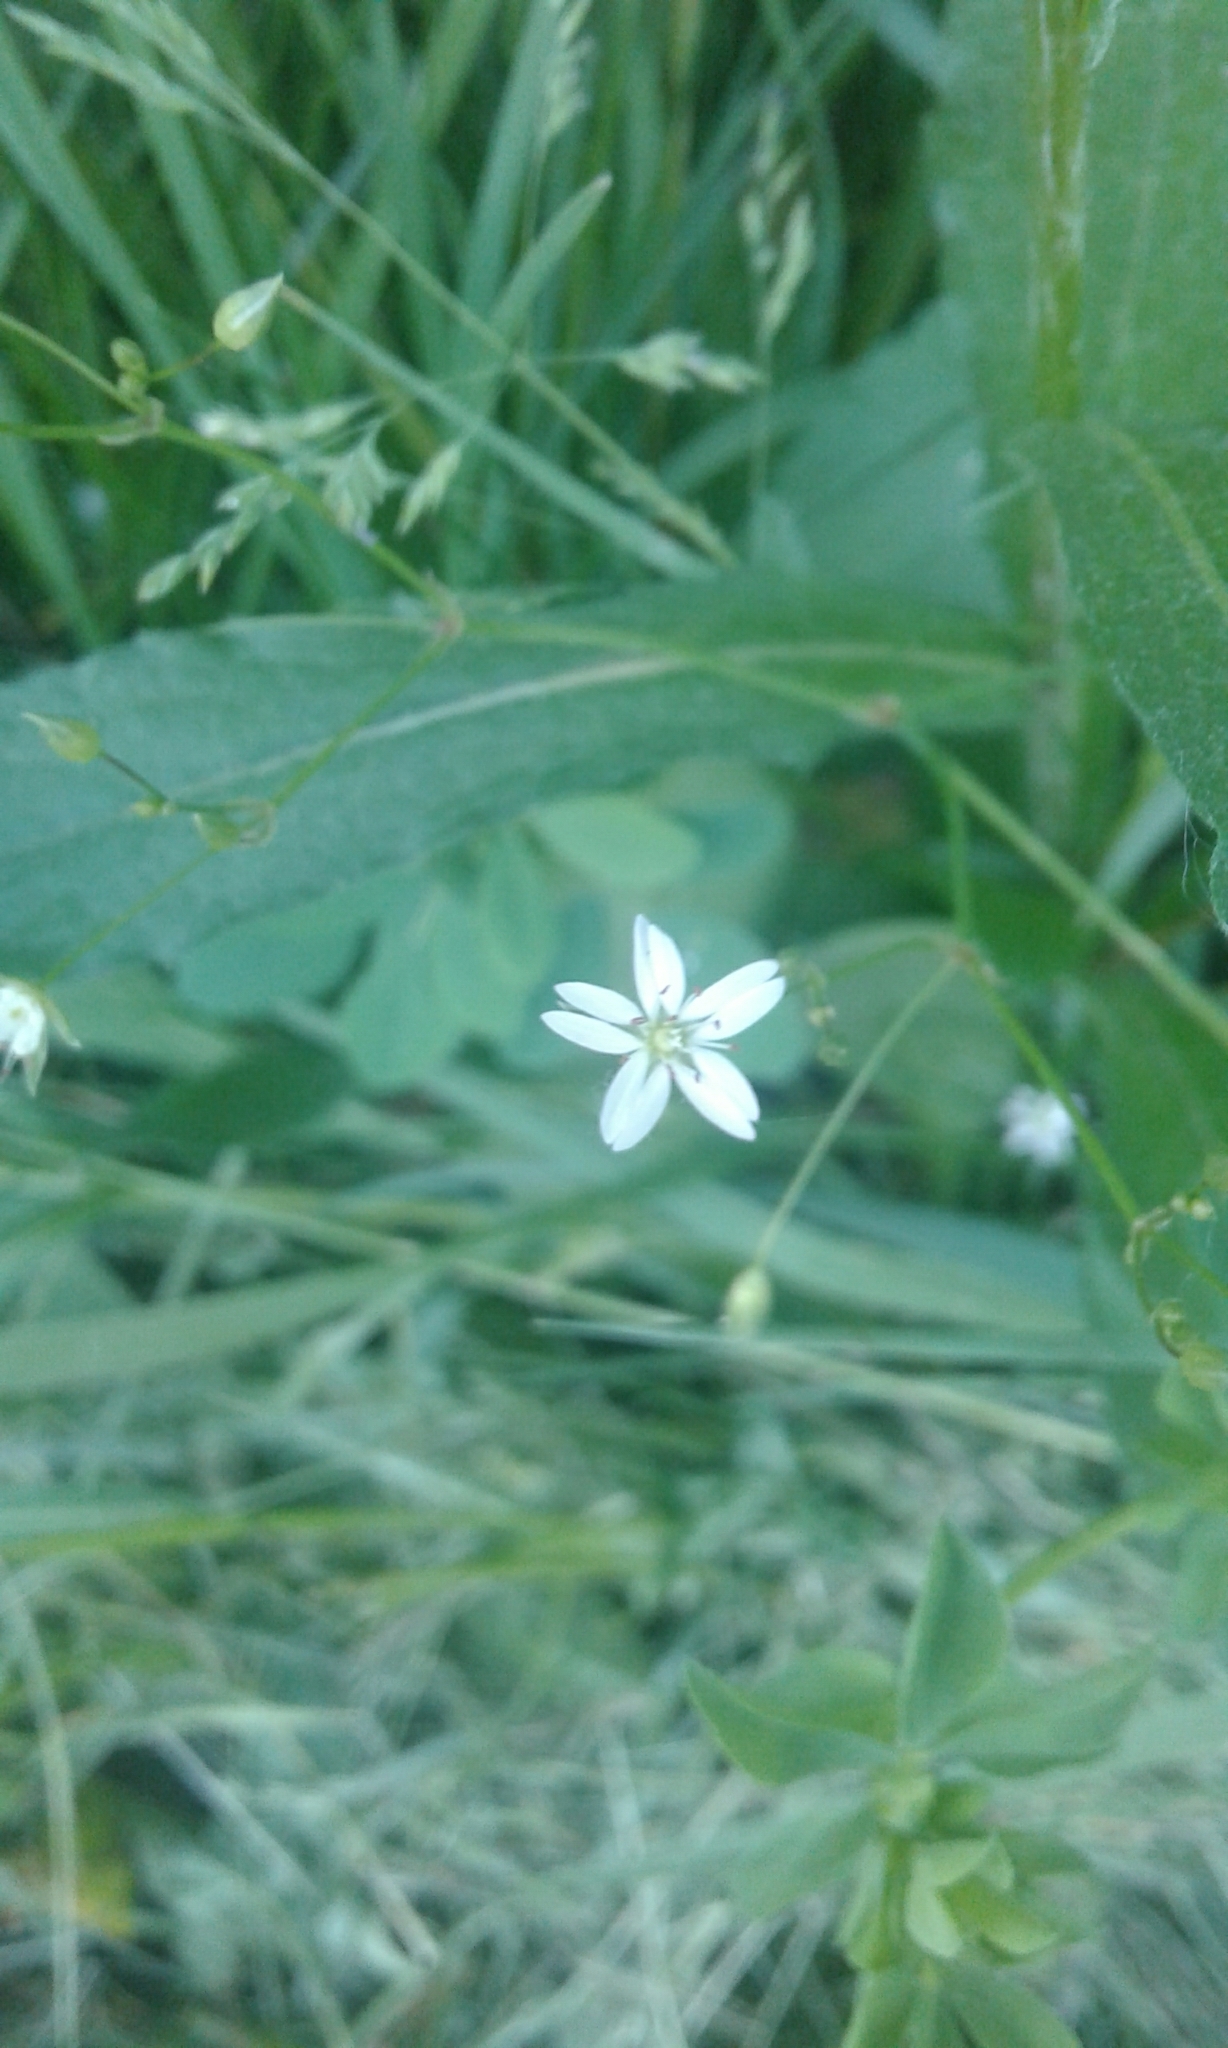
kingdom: Plantae
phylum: Tracheophyta
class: Magnoliopsida
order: Caryophyllales
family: Caryophyllaceae
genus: Stellaria
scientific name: Stellaria graminea
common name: Grass-like starwort
